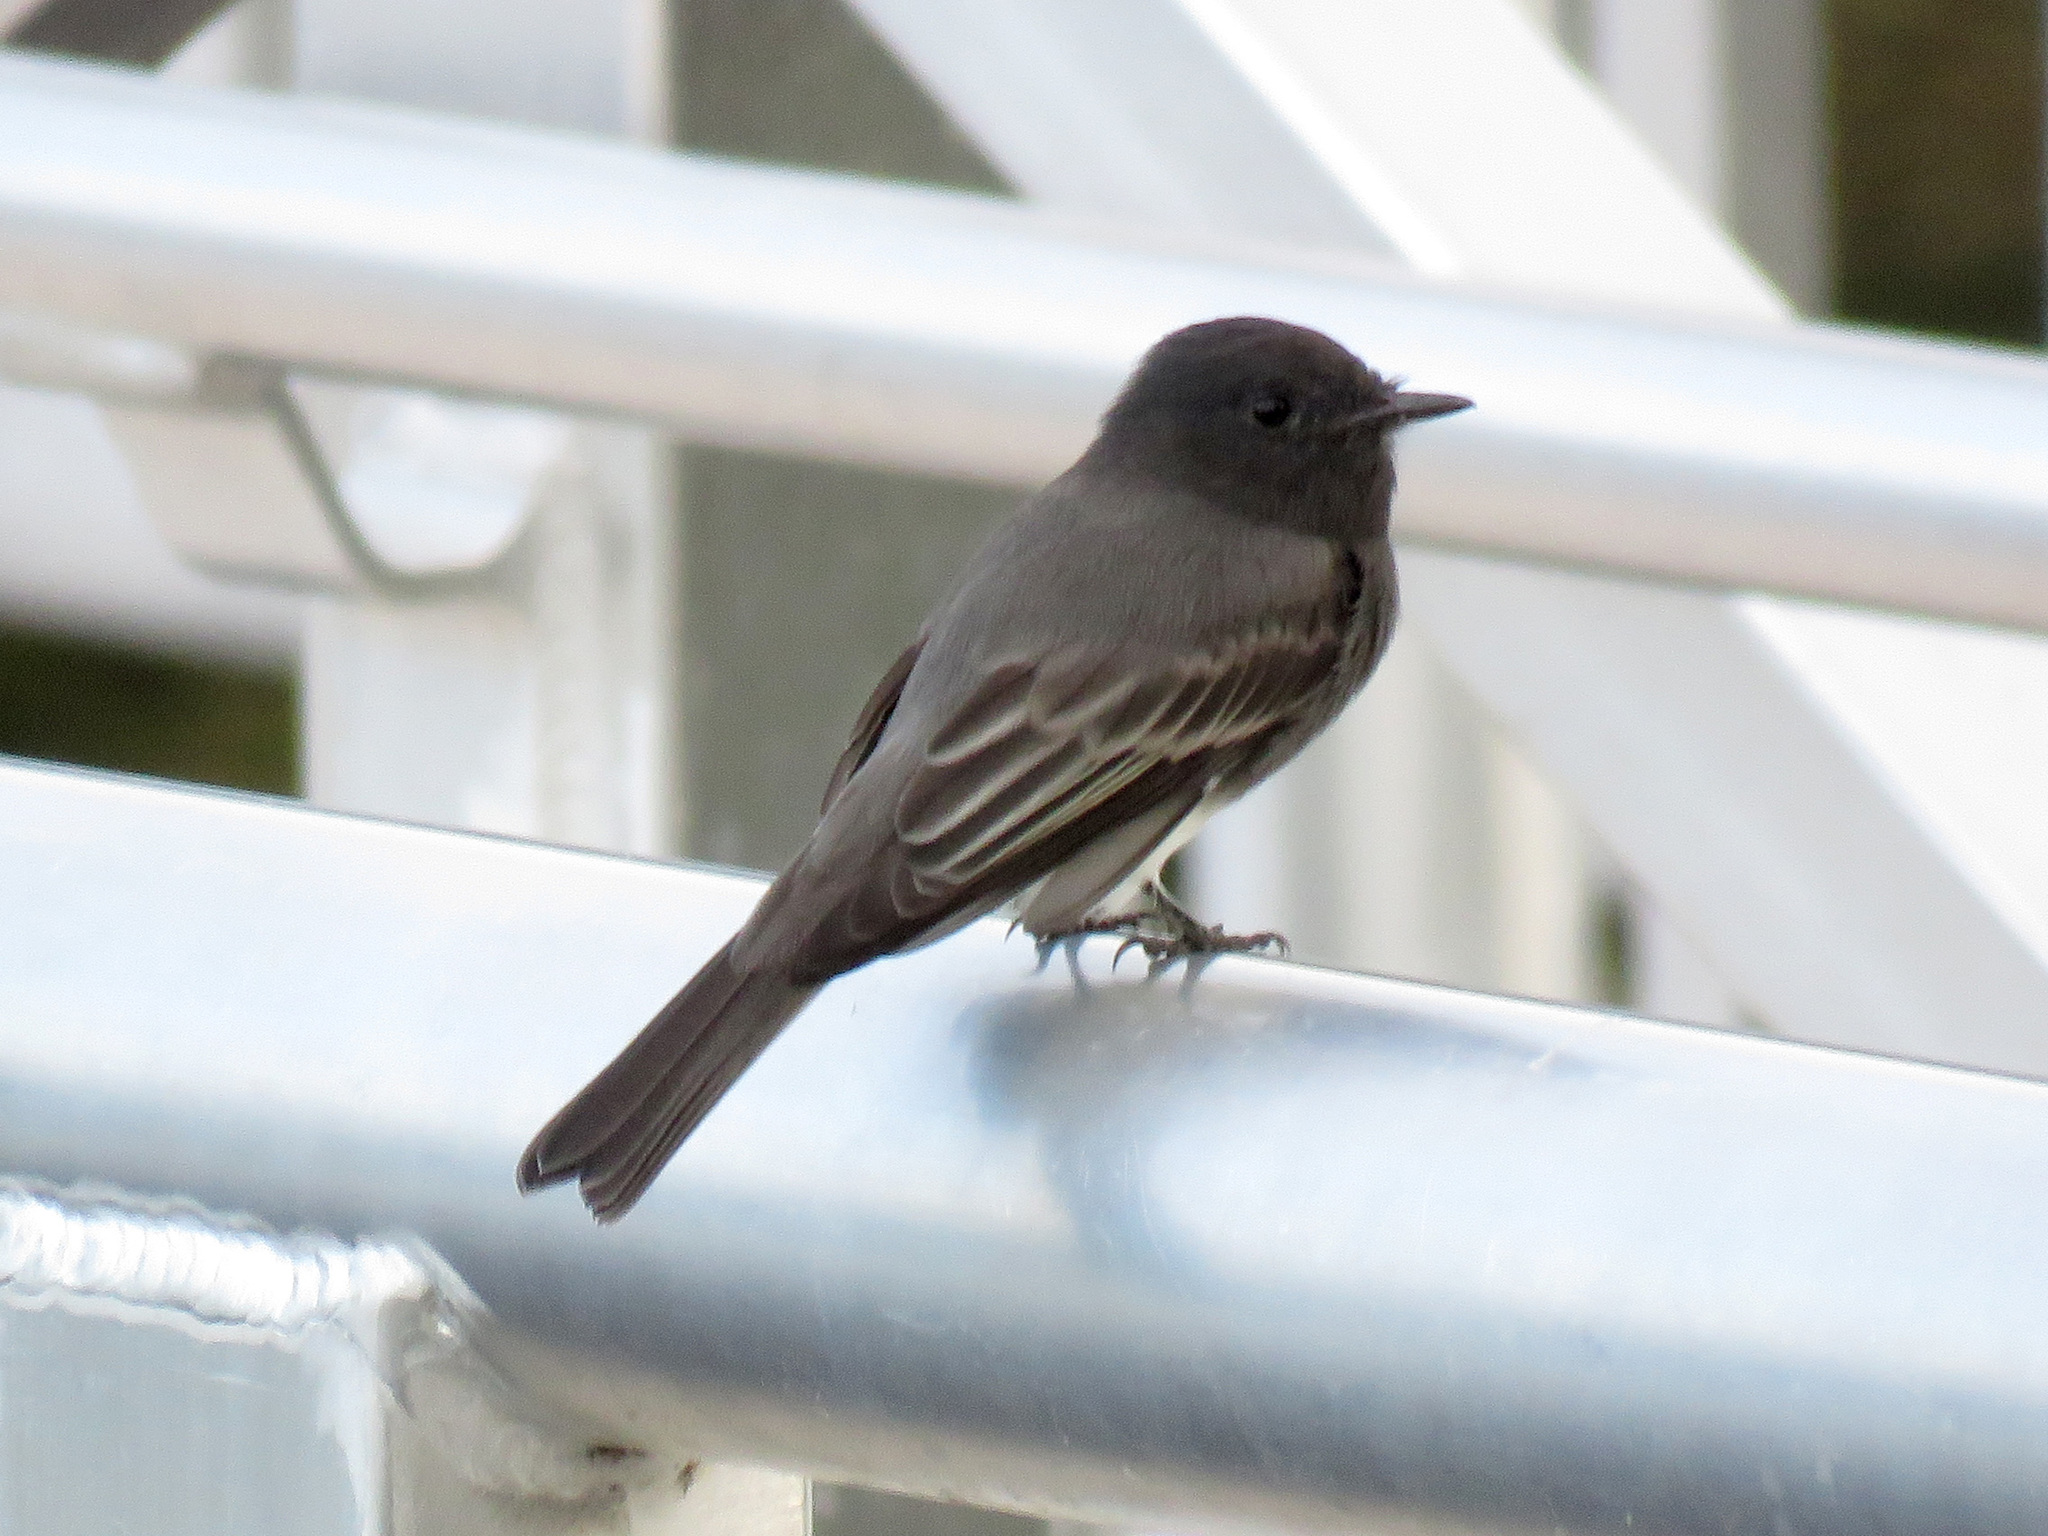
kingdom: Animalia
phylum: Chordata
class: Aves
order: Passeriformes
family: Tyrannidae
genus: Sayornis
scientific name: Sayornis nigricans
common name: Black phoebe
